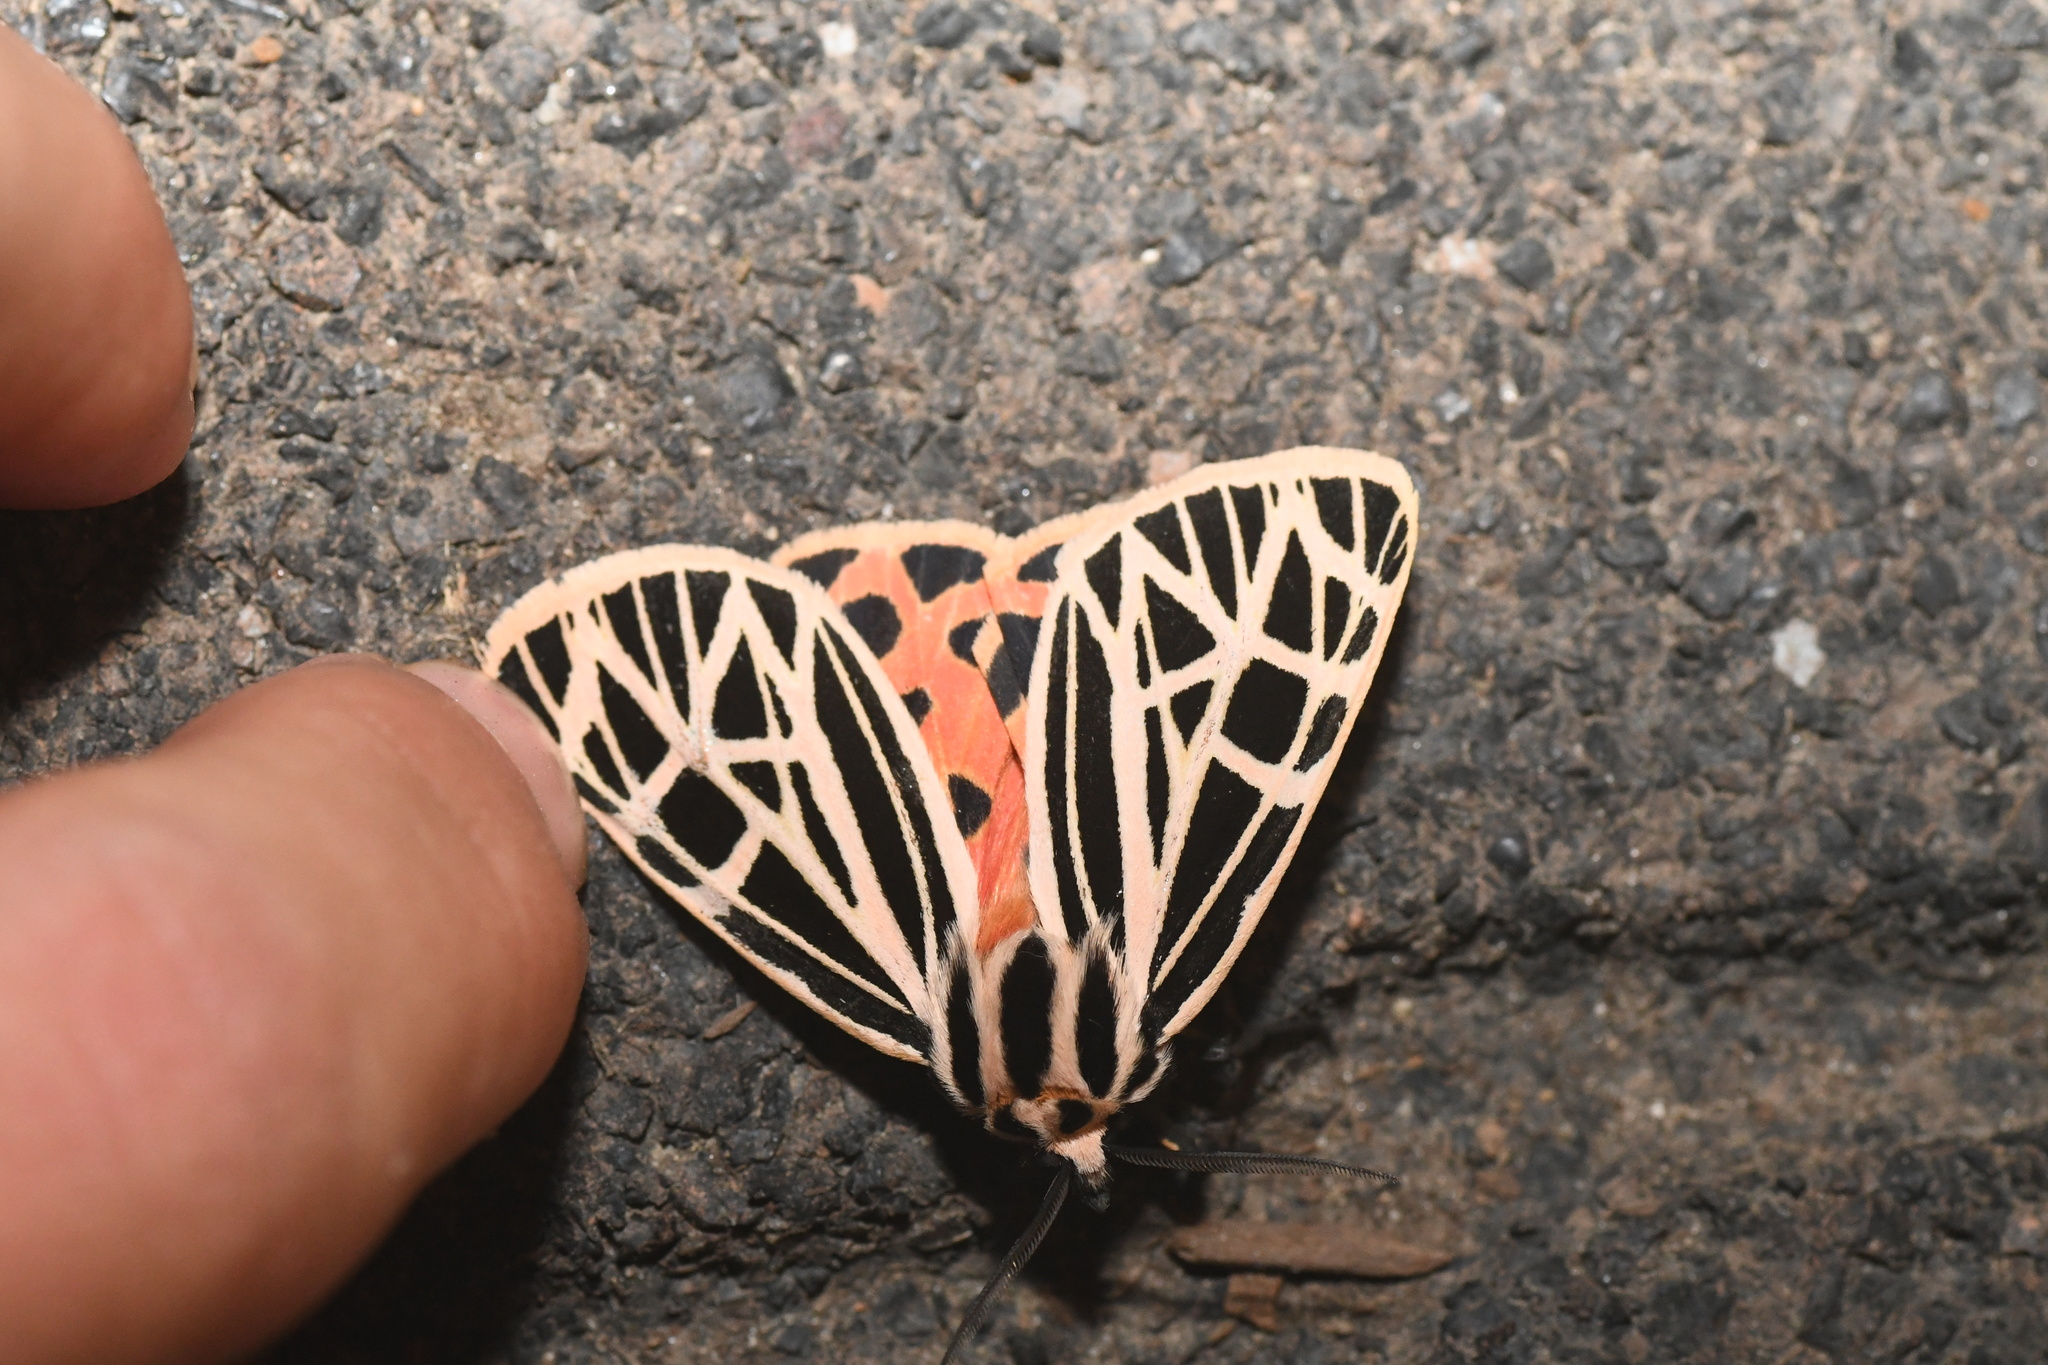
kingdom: Animalia
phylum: Arthropoda
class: Insecta
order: Lepidoptera
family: Erebidae
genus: Grammia
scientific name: Grammia virgo
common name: Virgin tiger moth
